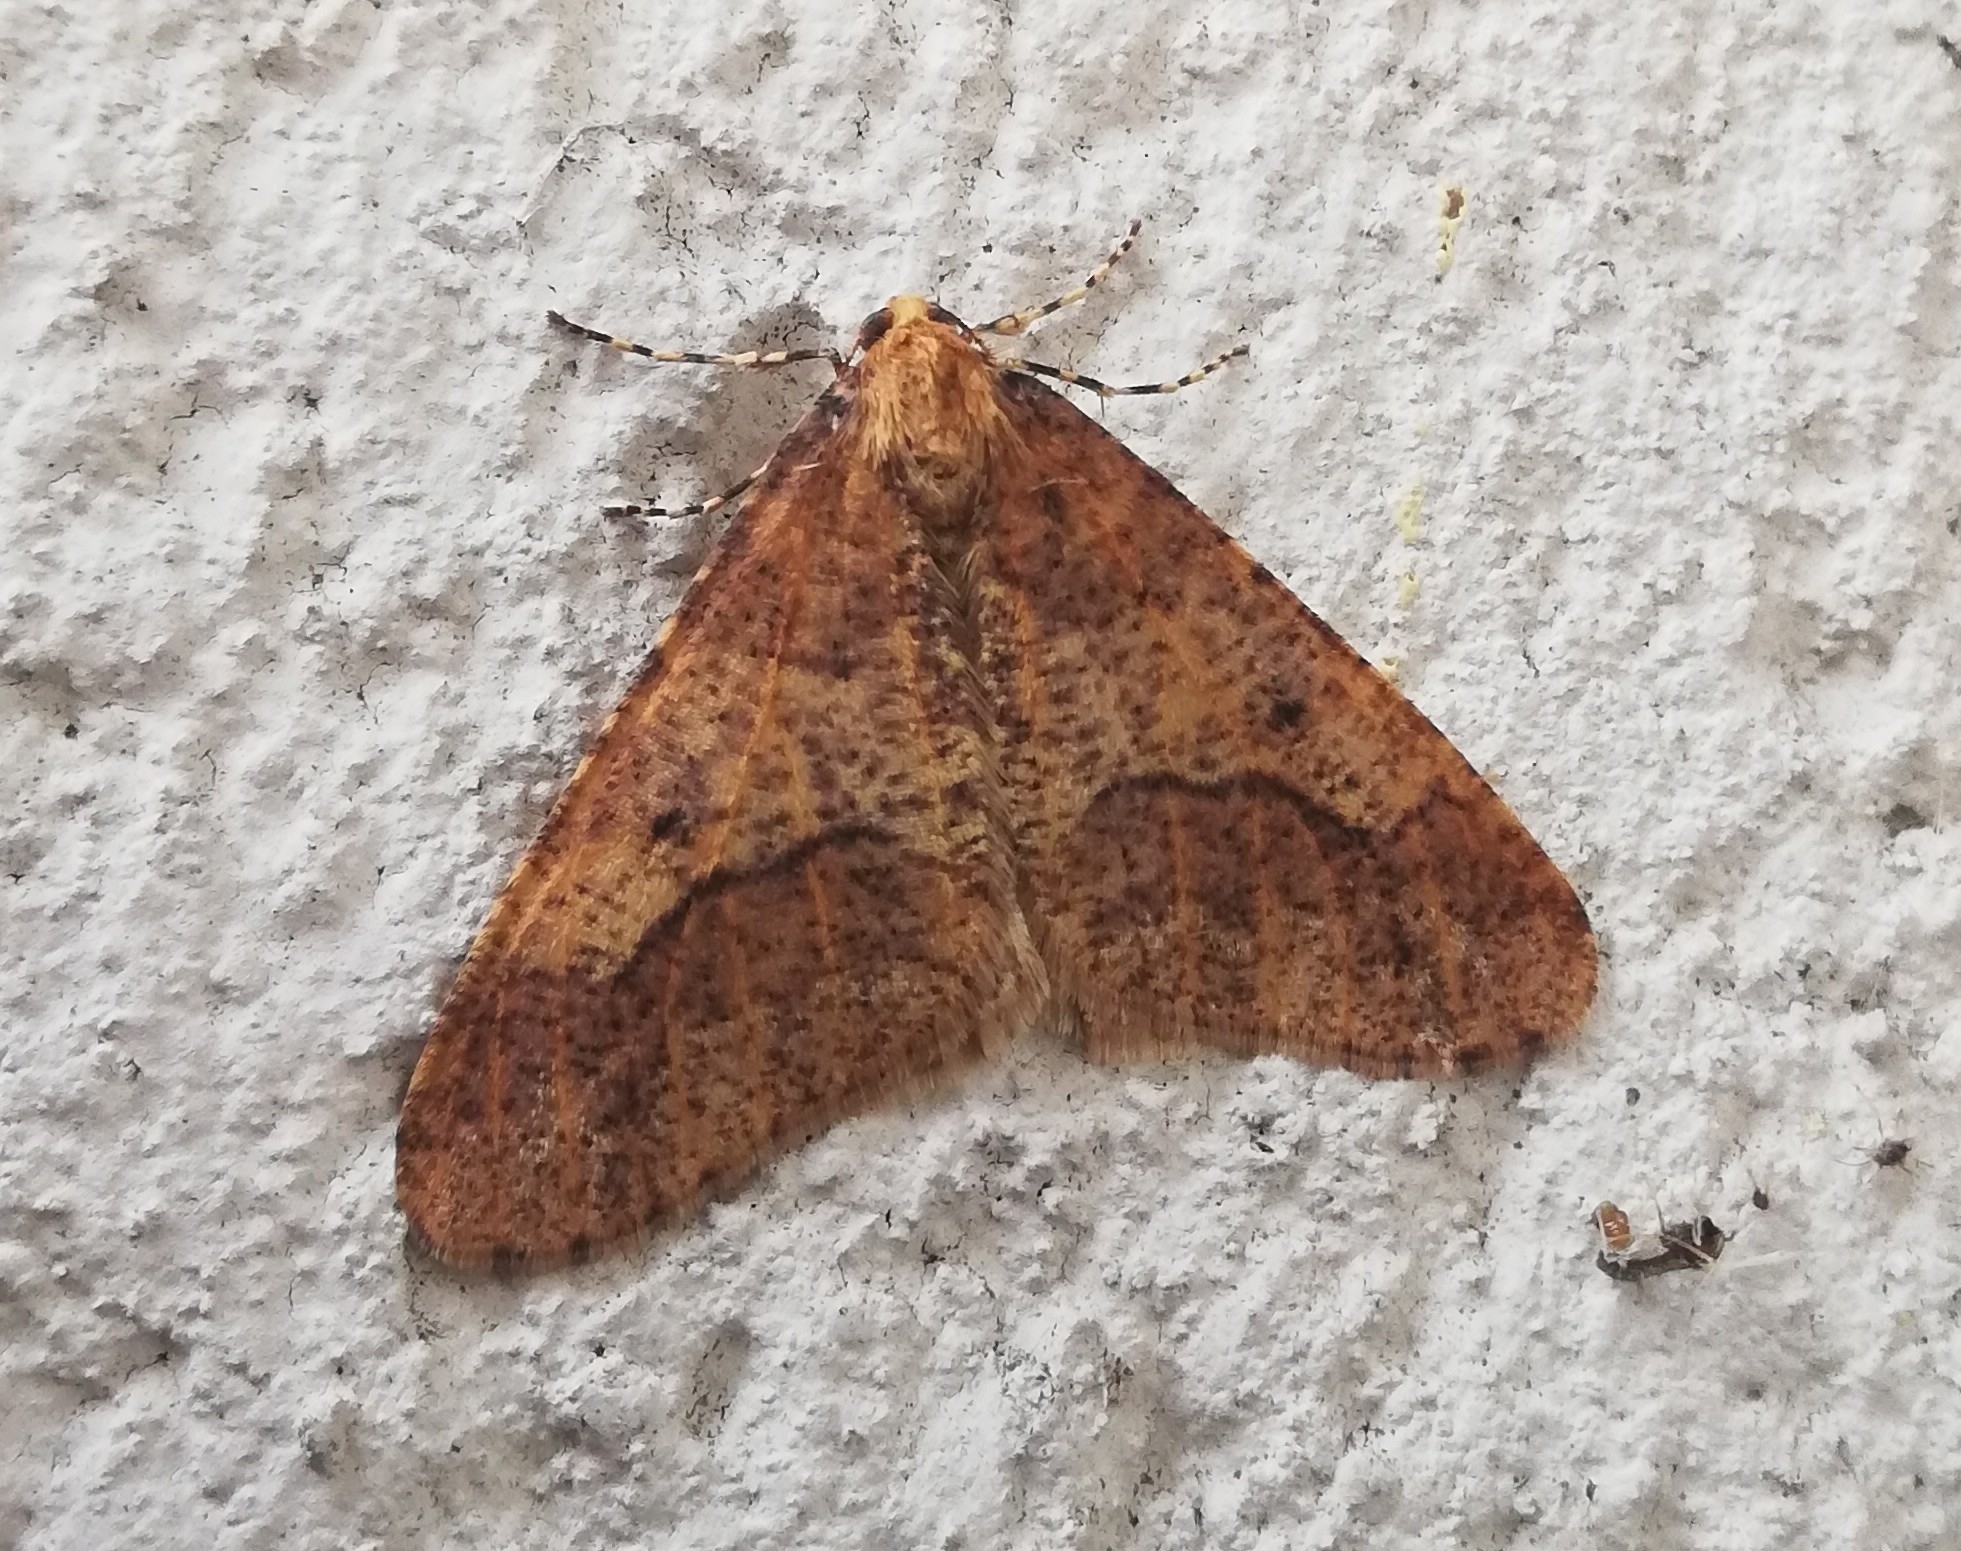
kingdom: Animalia
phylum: Arthropoda
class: Insecta
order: Lepidoptera
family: Geometridae
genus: Erannis
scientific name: Erannis defoliaria
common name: Mottled umber
